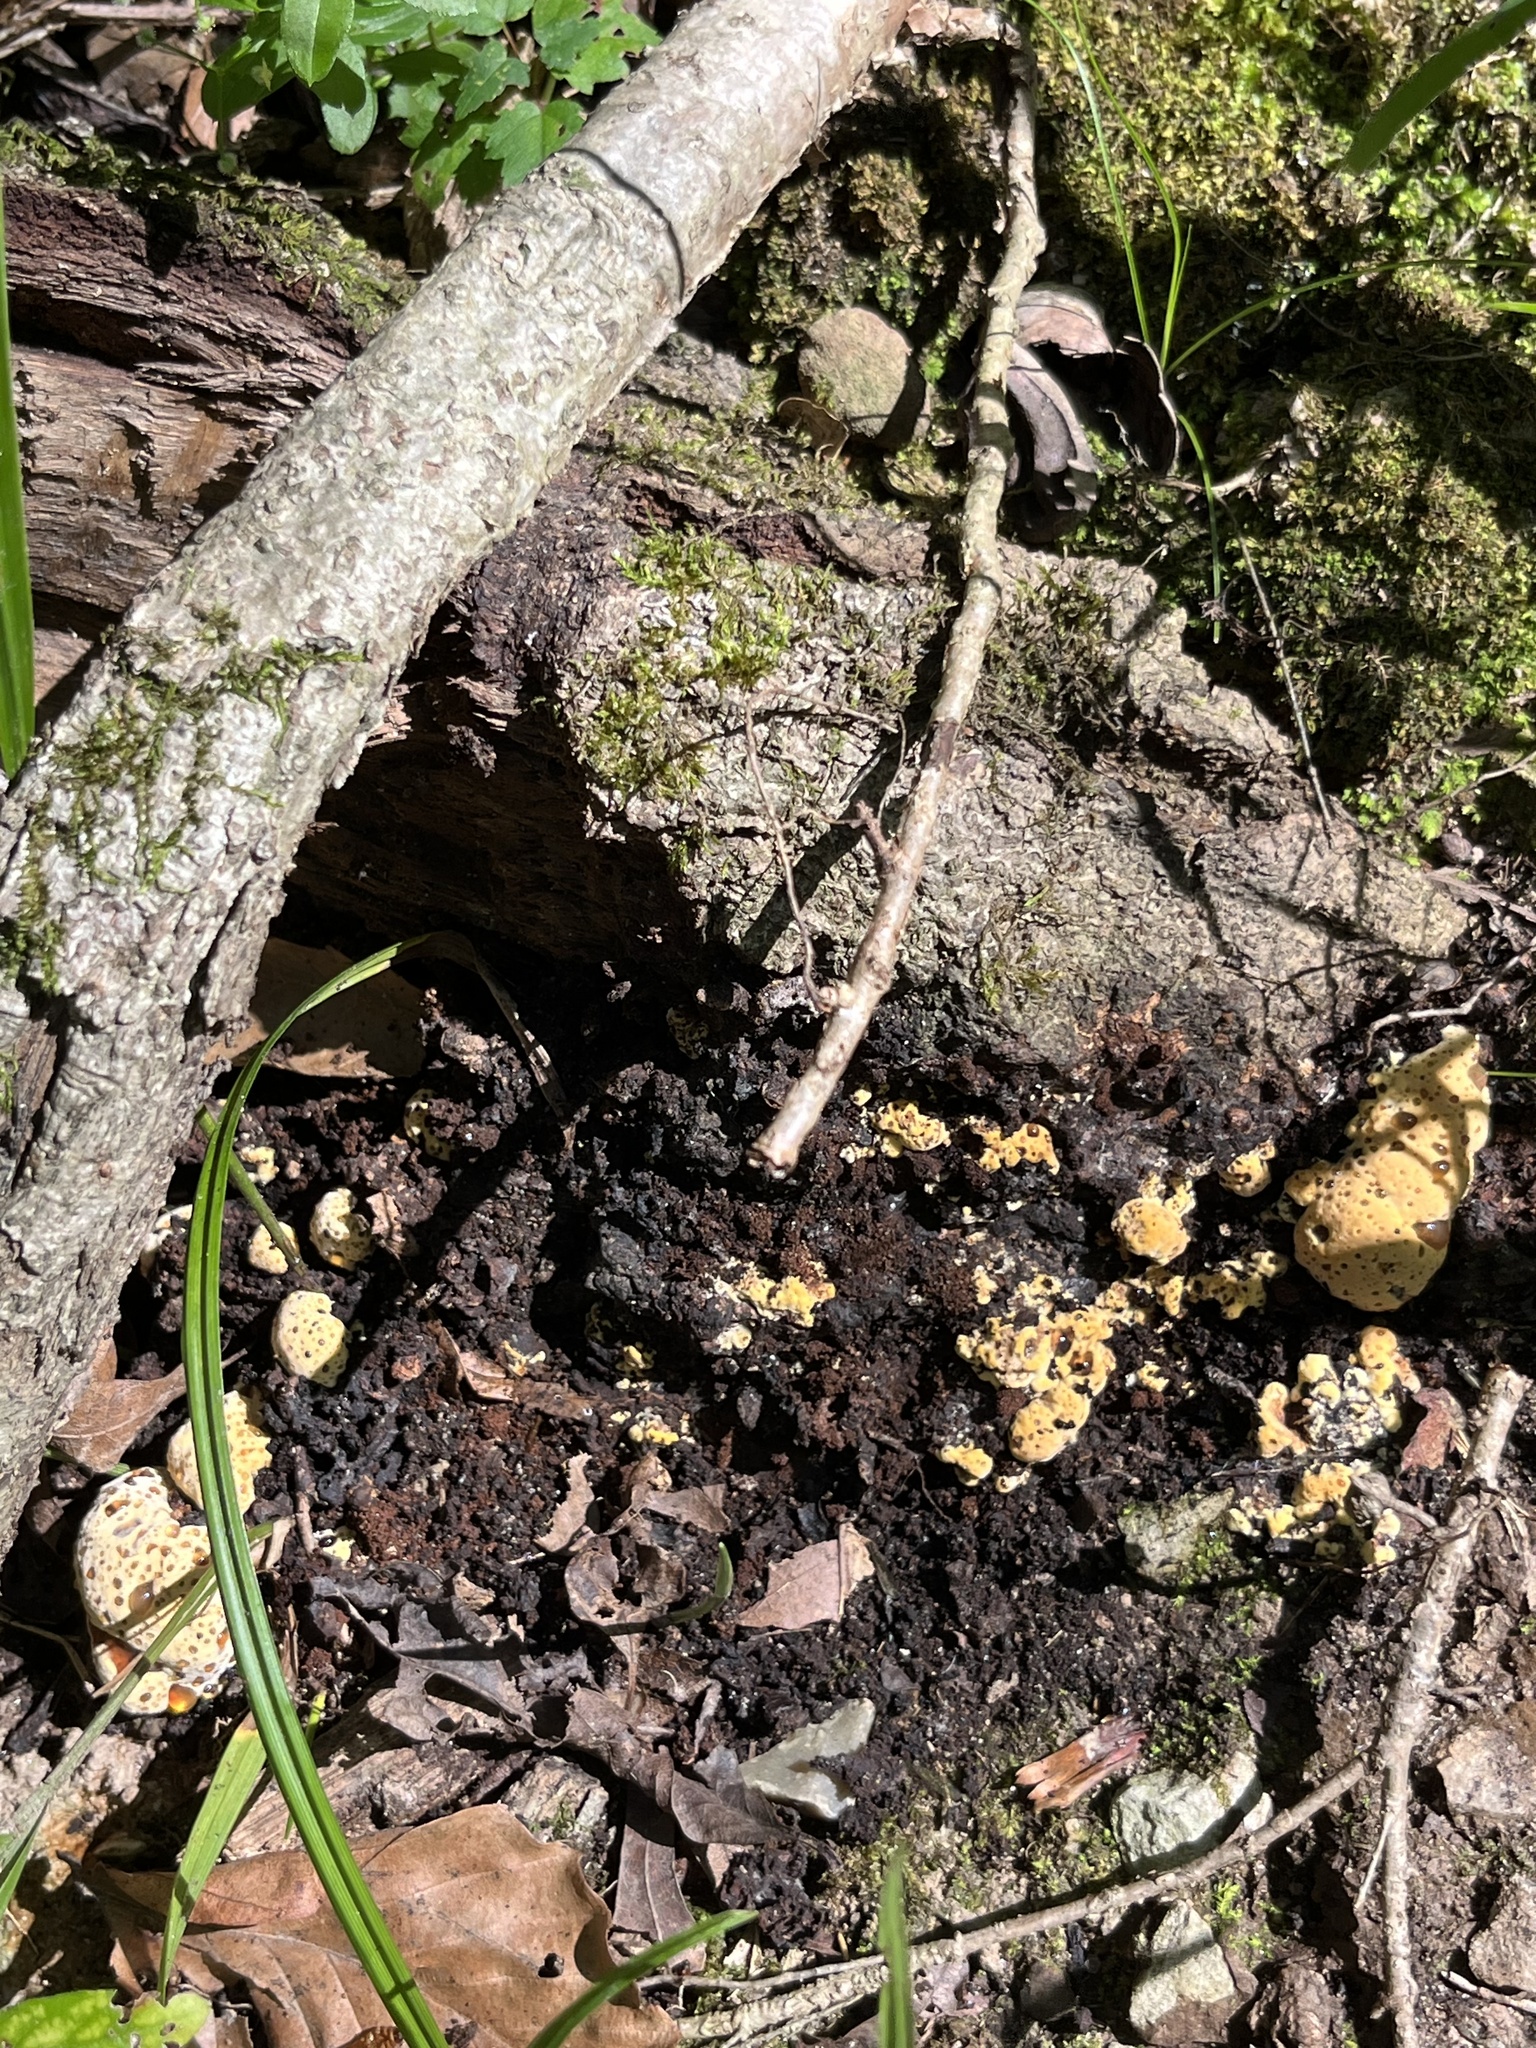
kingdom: Fungi
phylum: Basidiomycota
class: Agaricomycetes
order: Hymenochaetales
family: Hymenochaetaceae
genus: Pseudoinonotus
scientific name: Pseudoinonotus dryadeus
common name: Oak bracket
